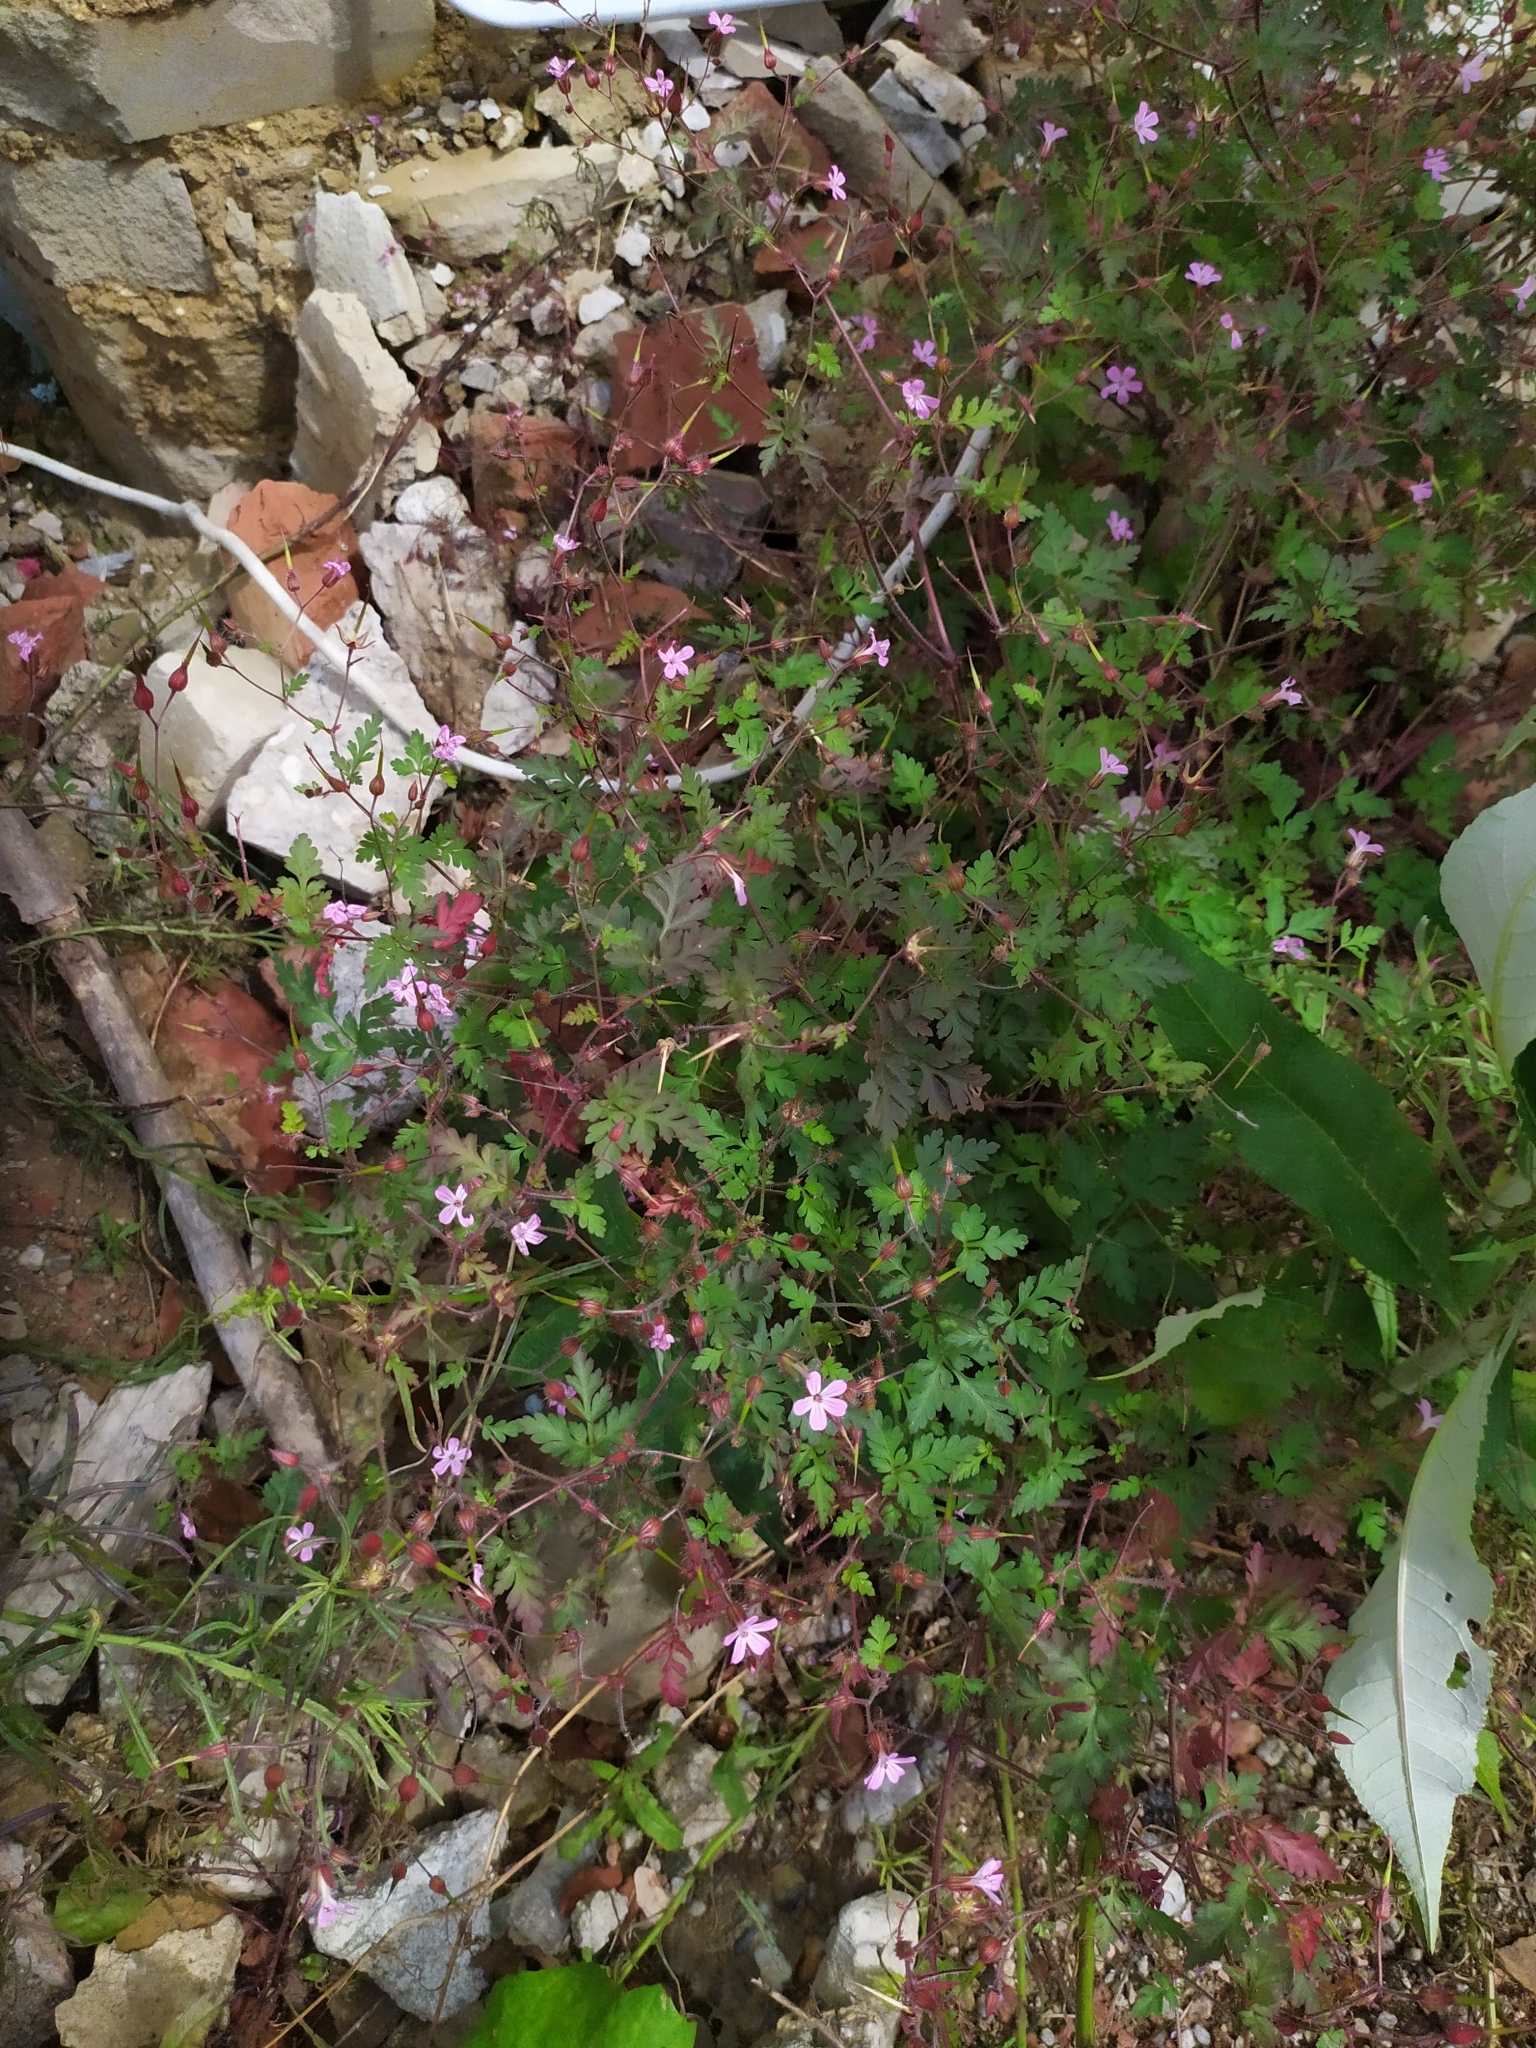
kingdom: Plantae
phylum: Tracheophyta
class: Magnoliopsida
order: Geraniales
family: Geraniaceae
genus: Geranium
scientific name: Geranium robertianum
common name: Herb-robert
